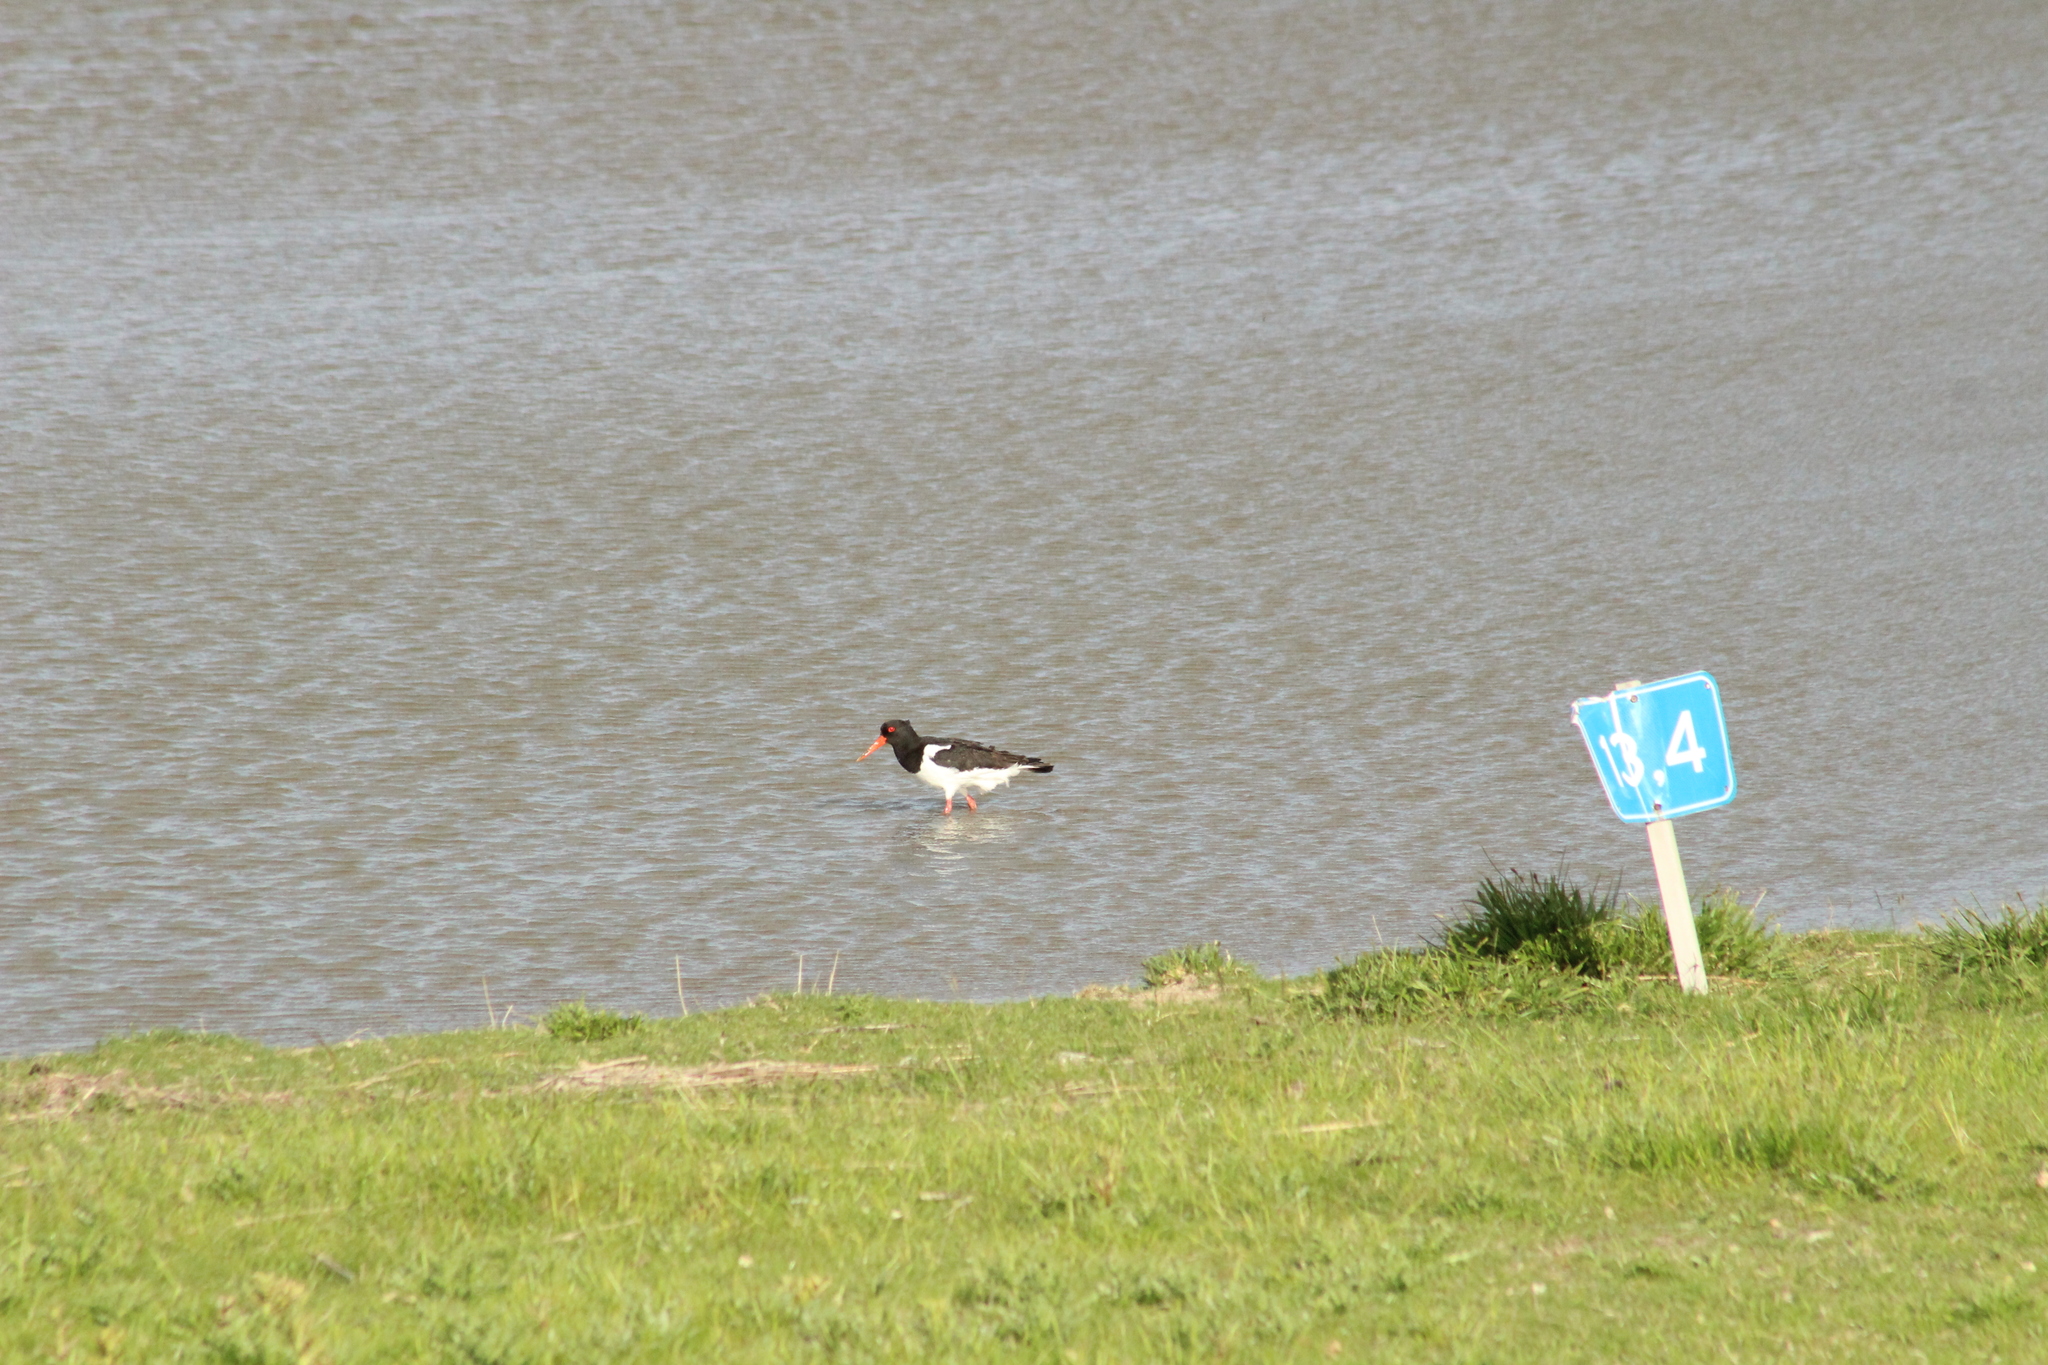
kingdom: Animalia
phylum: Chordata
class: Aves
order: Charadriiformes
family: Haematopodidae
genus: Haematopus
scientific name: Haematopus ostralegus
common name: Eurasian oystercatcher
